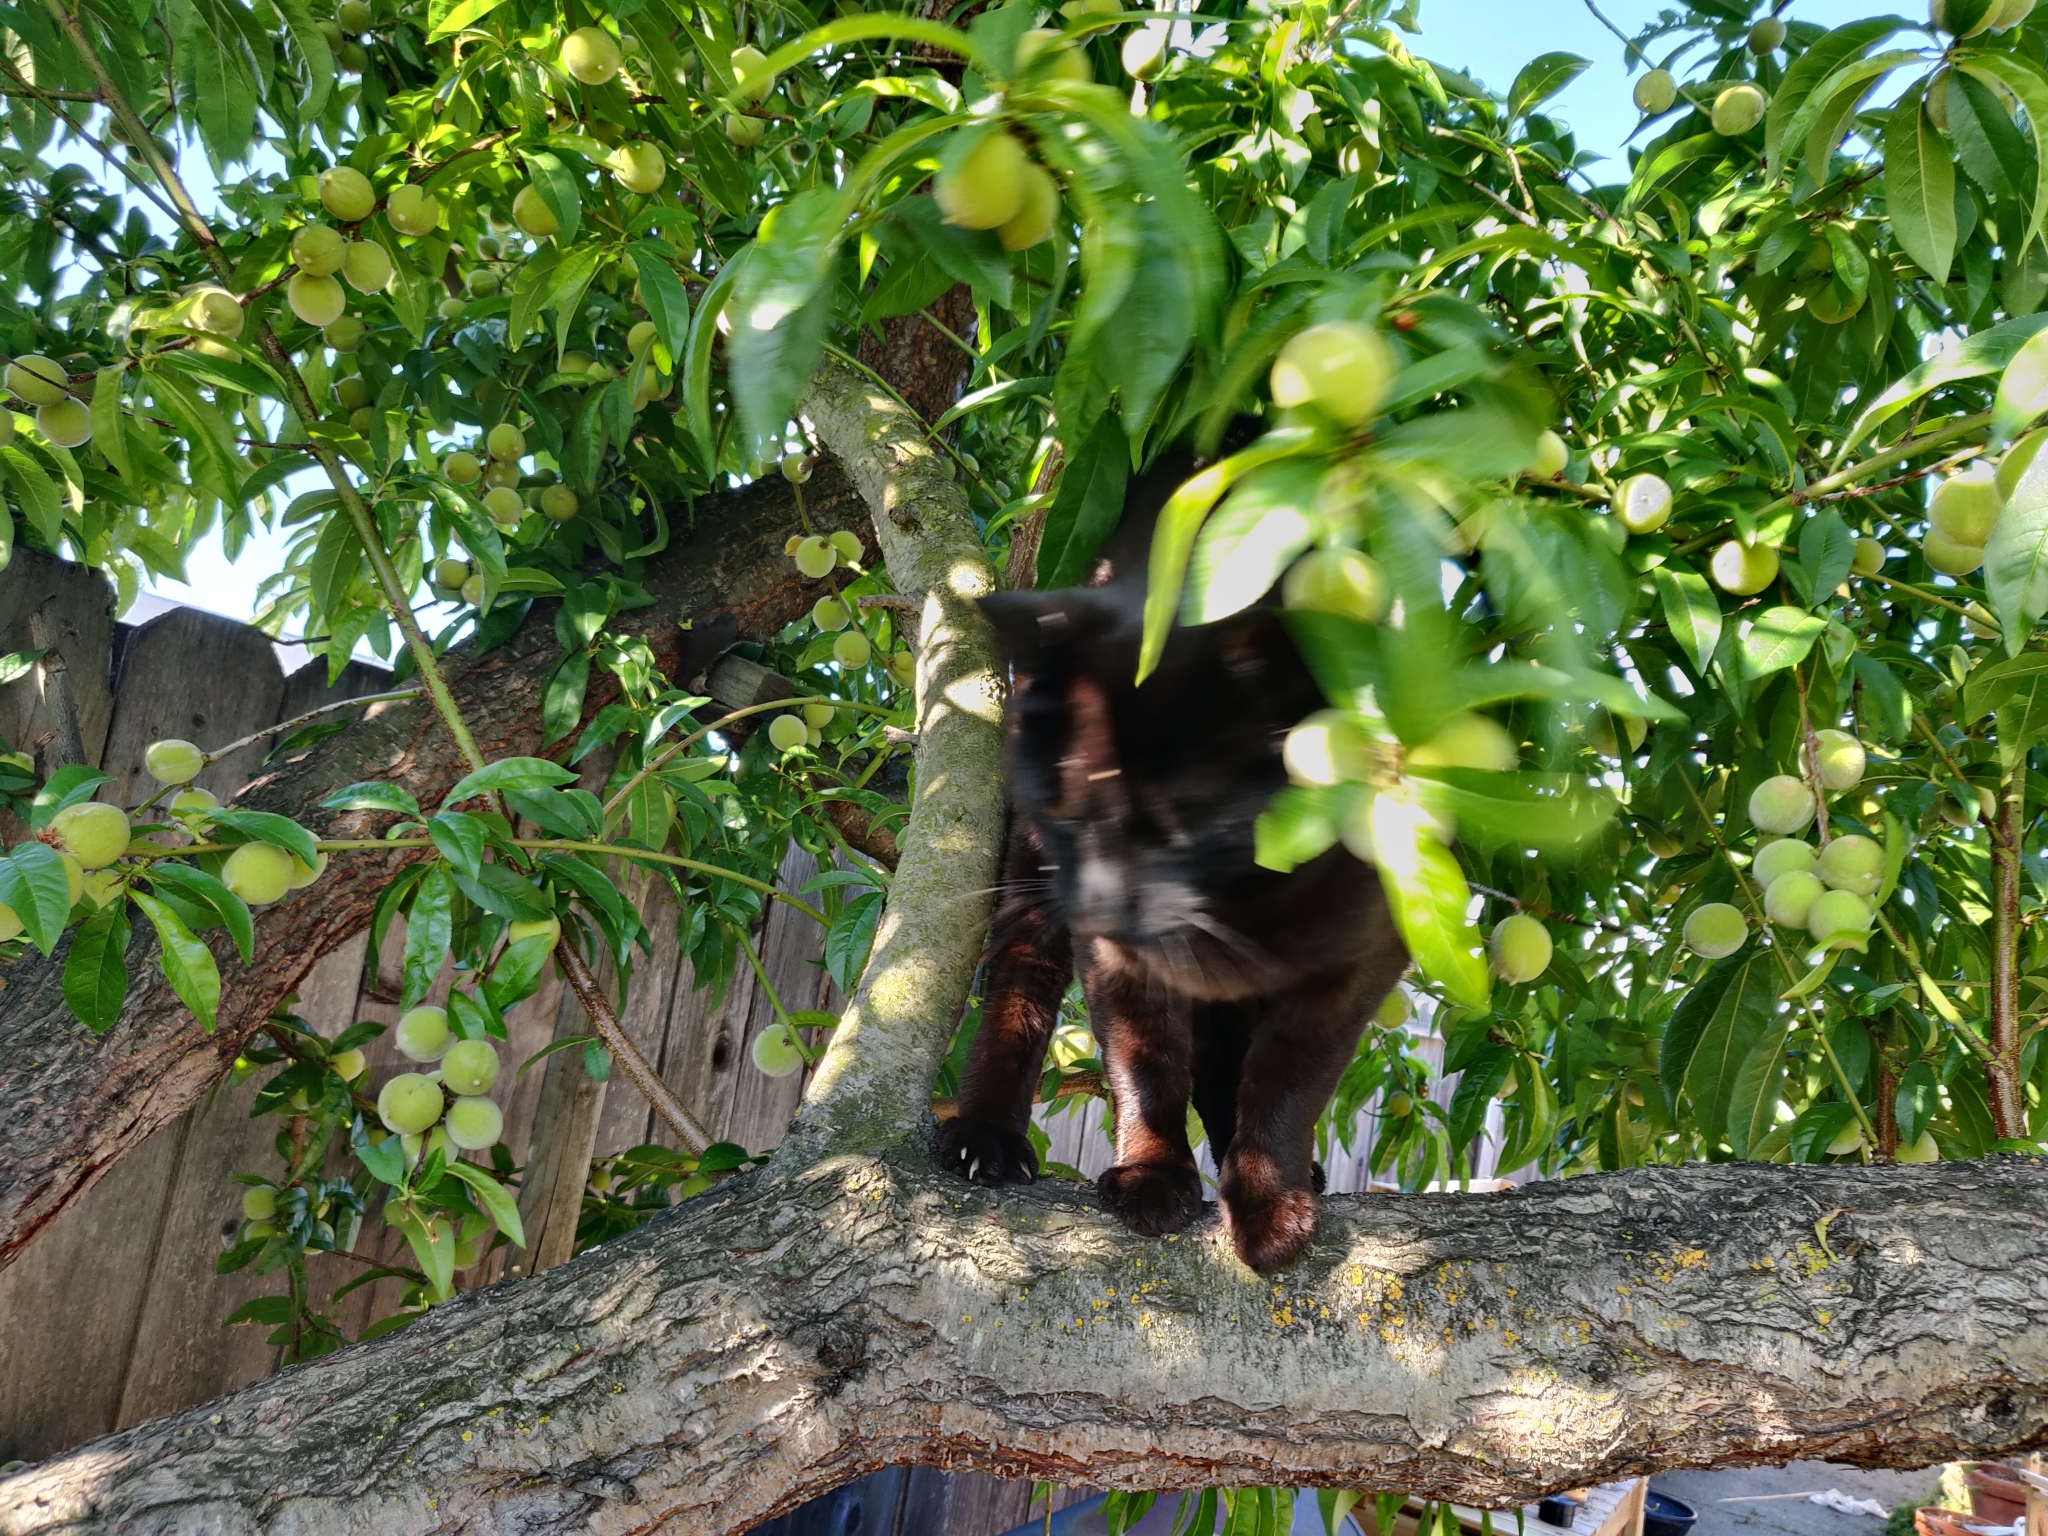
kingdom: Animalia
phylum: Chordata
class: Mammalia
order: Carnivora
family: Felidae
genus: Felis
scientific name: Felis catus
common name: Domestic cat
